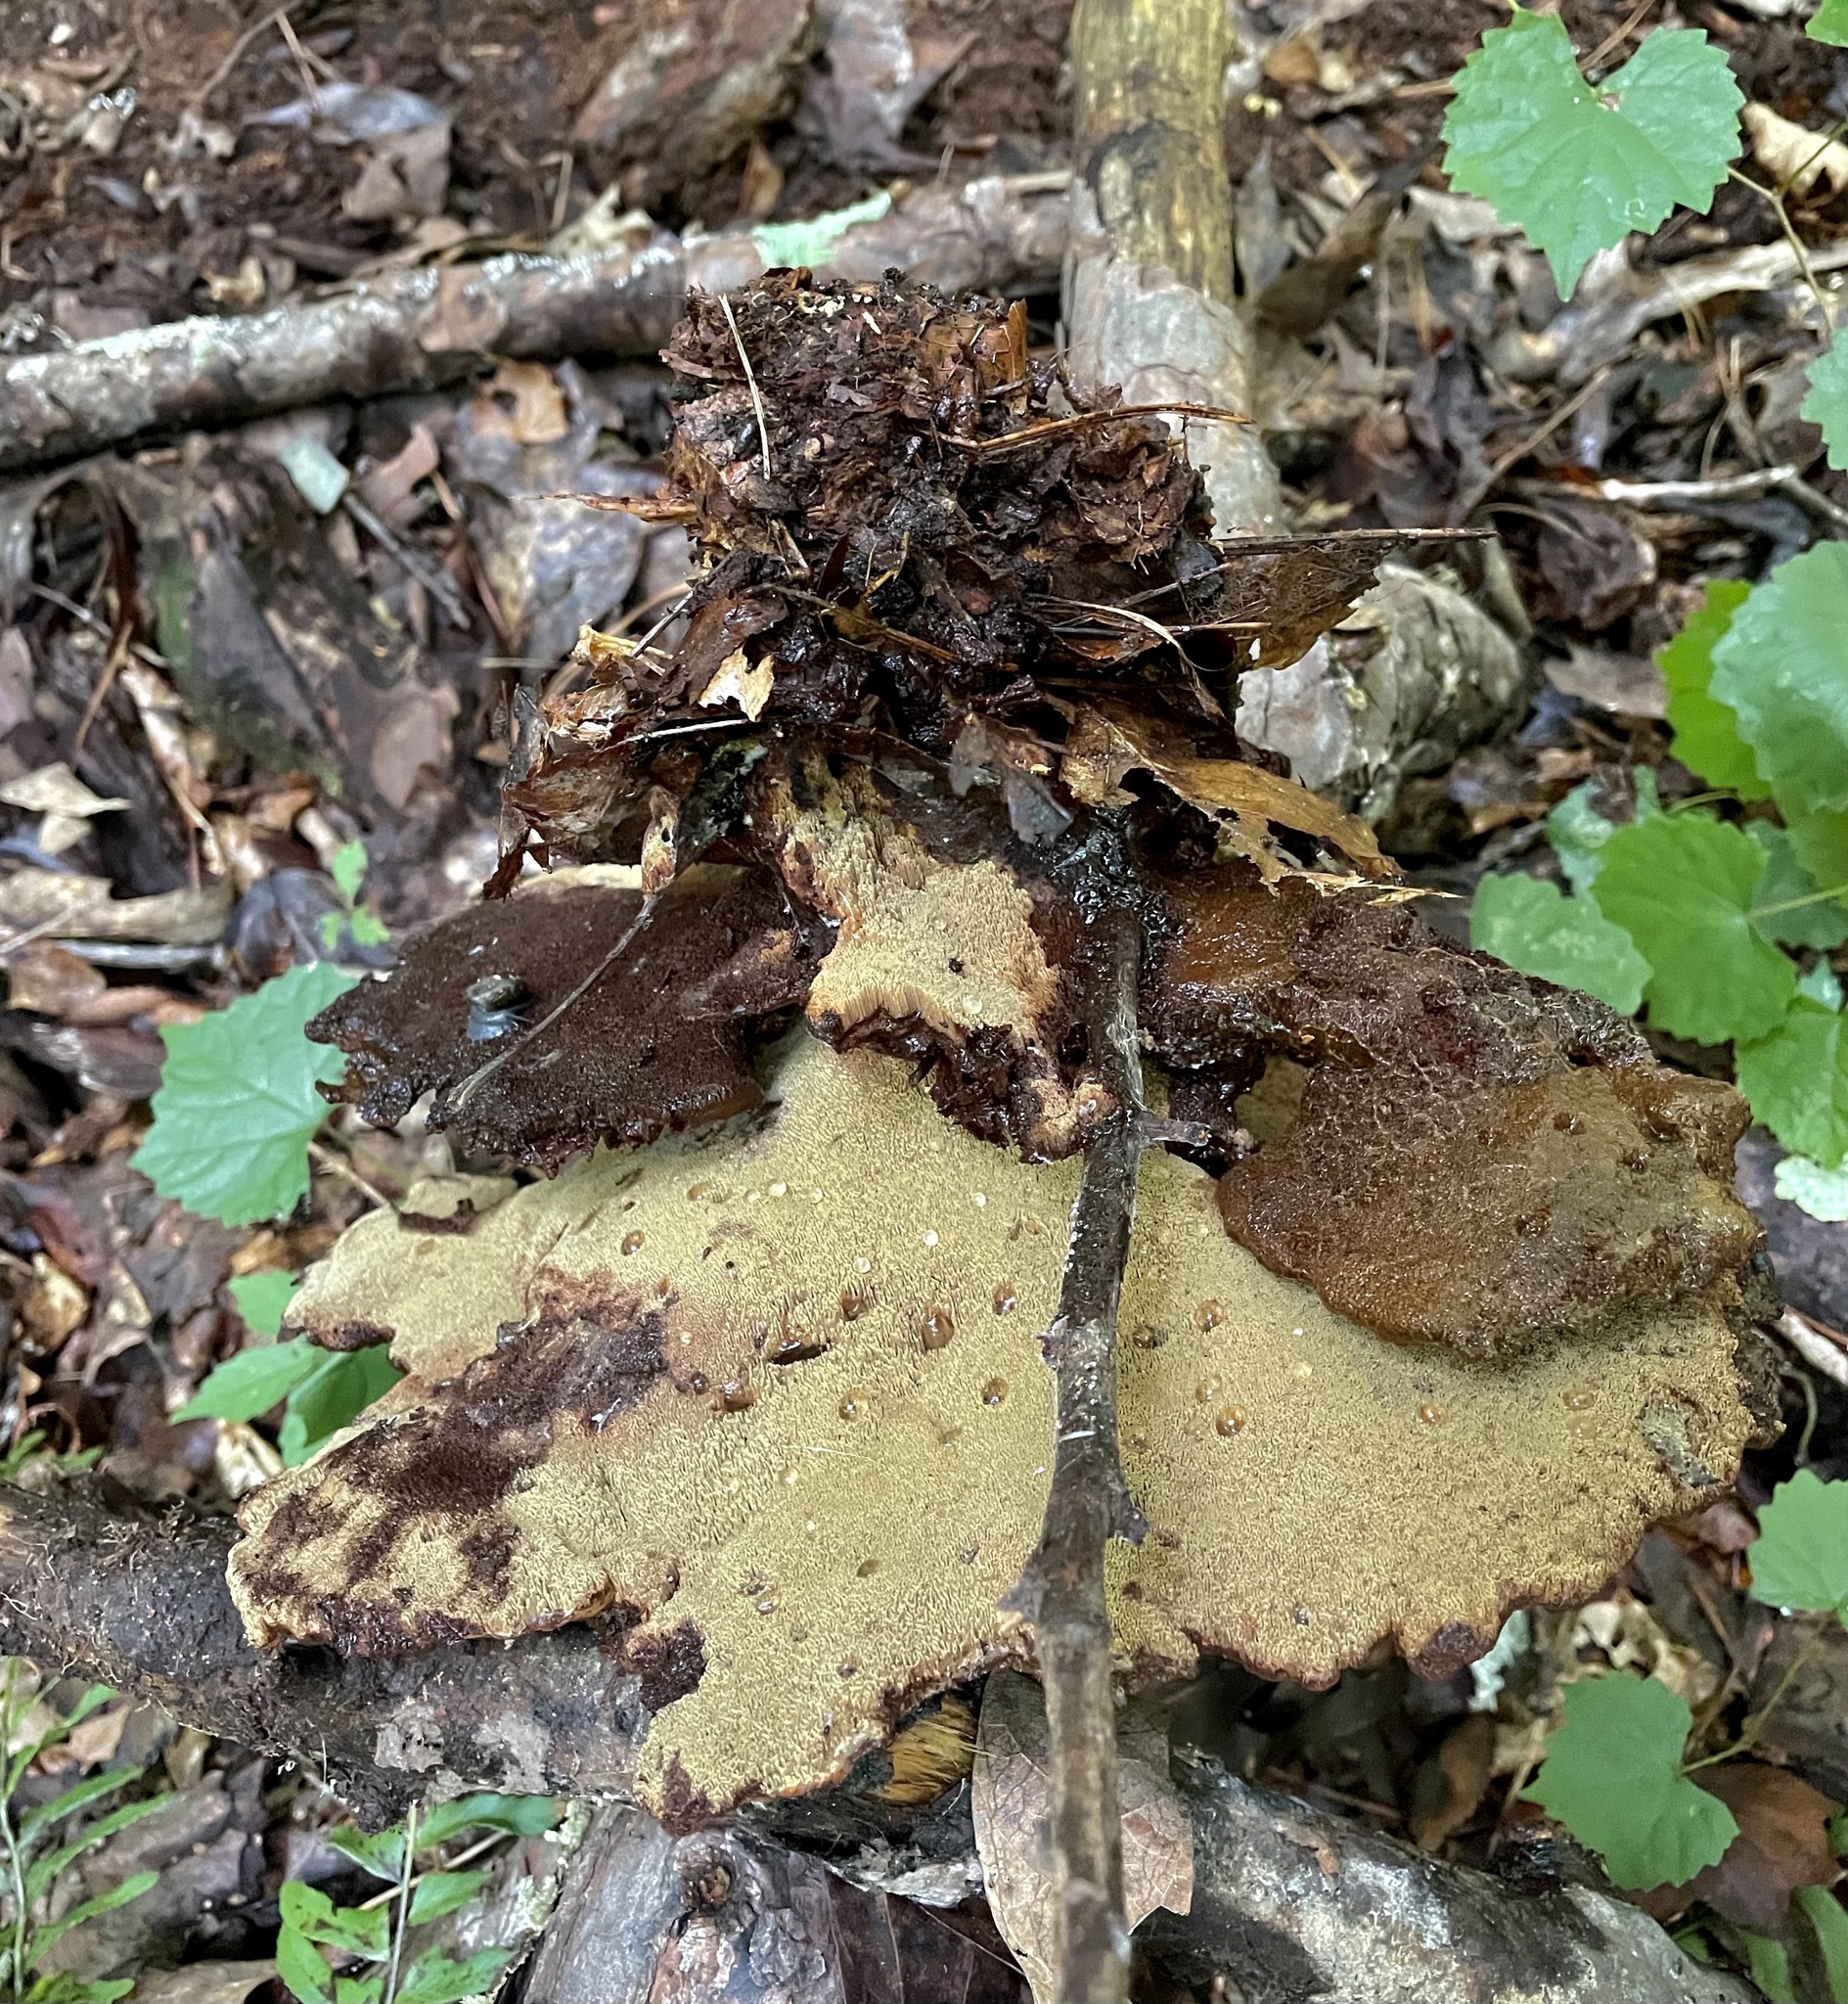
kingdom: Fungi
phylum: Basidiomycota
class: Agaricomycetes
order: Polyporales
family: Laetiporaceae
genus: Phaeolus
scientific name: Phaeolus schweinitzii
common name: Dyer's mazegill
